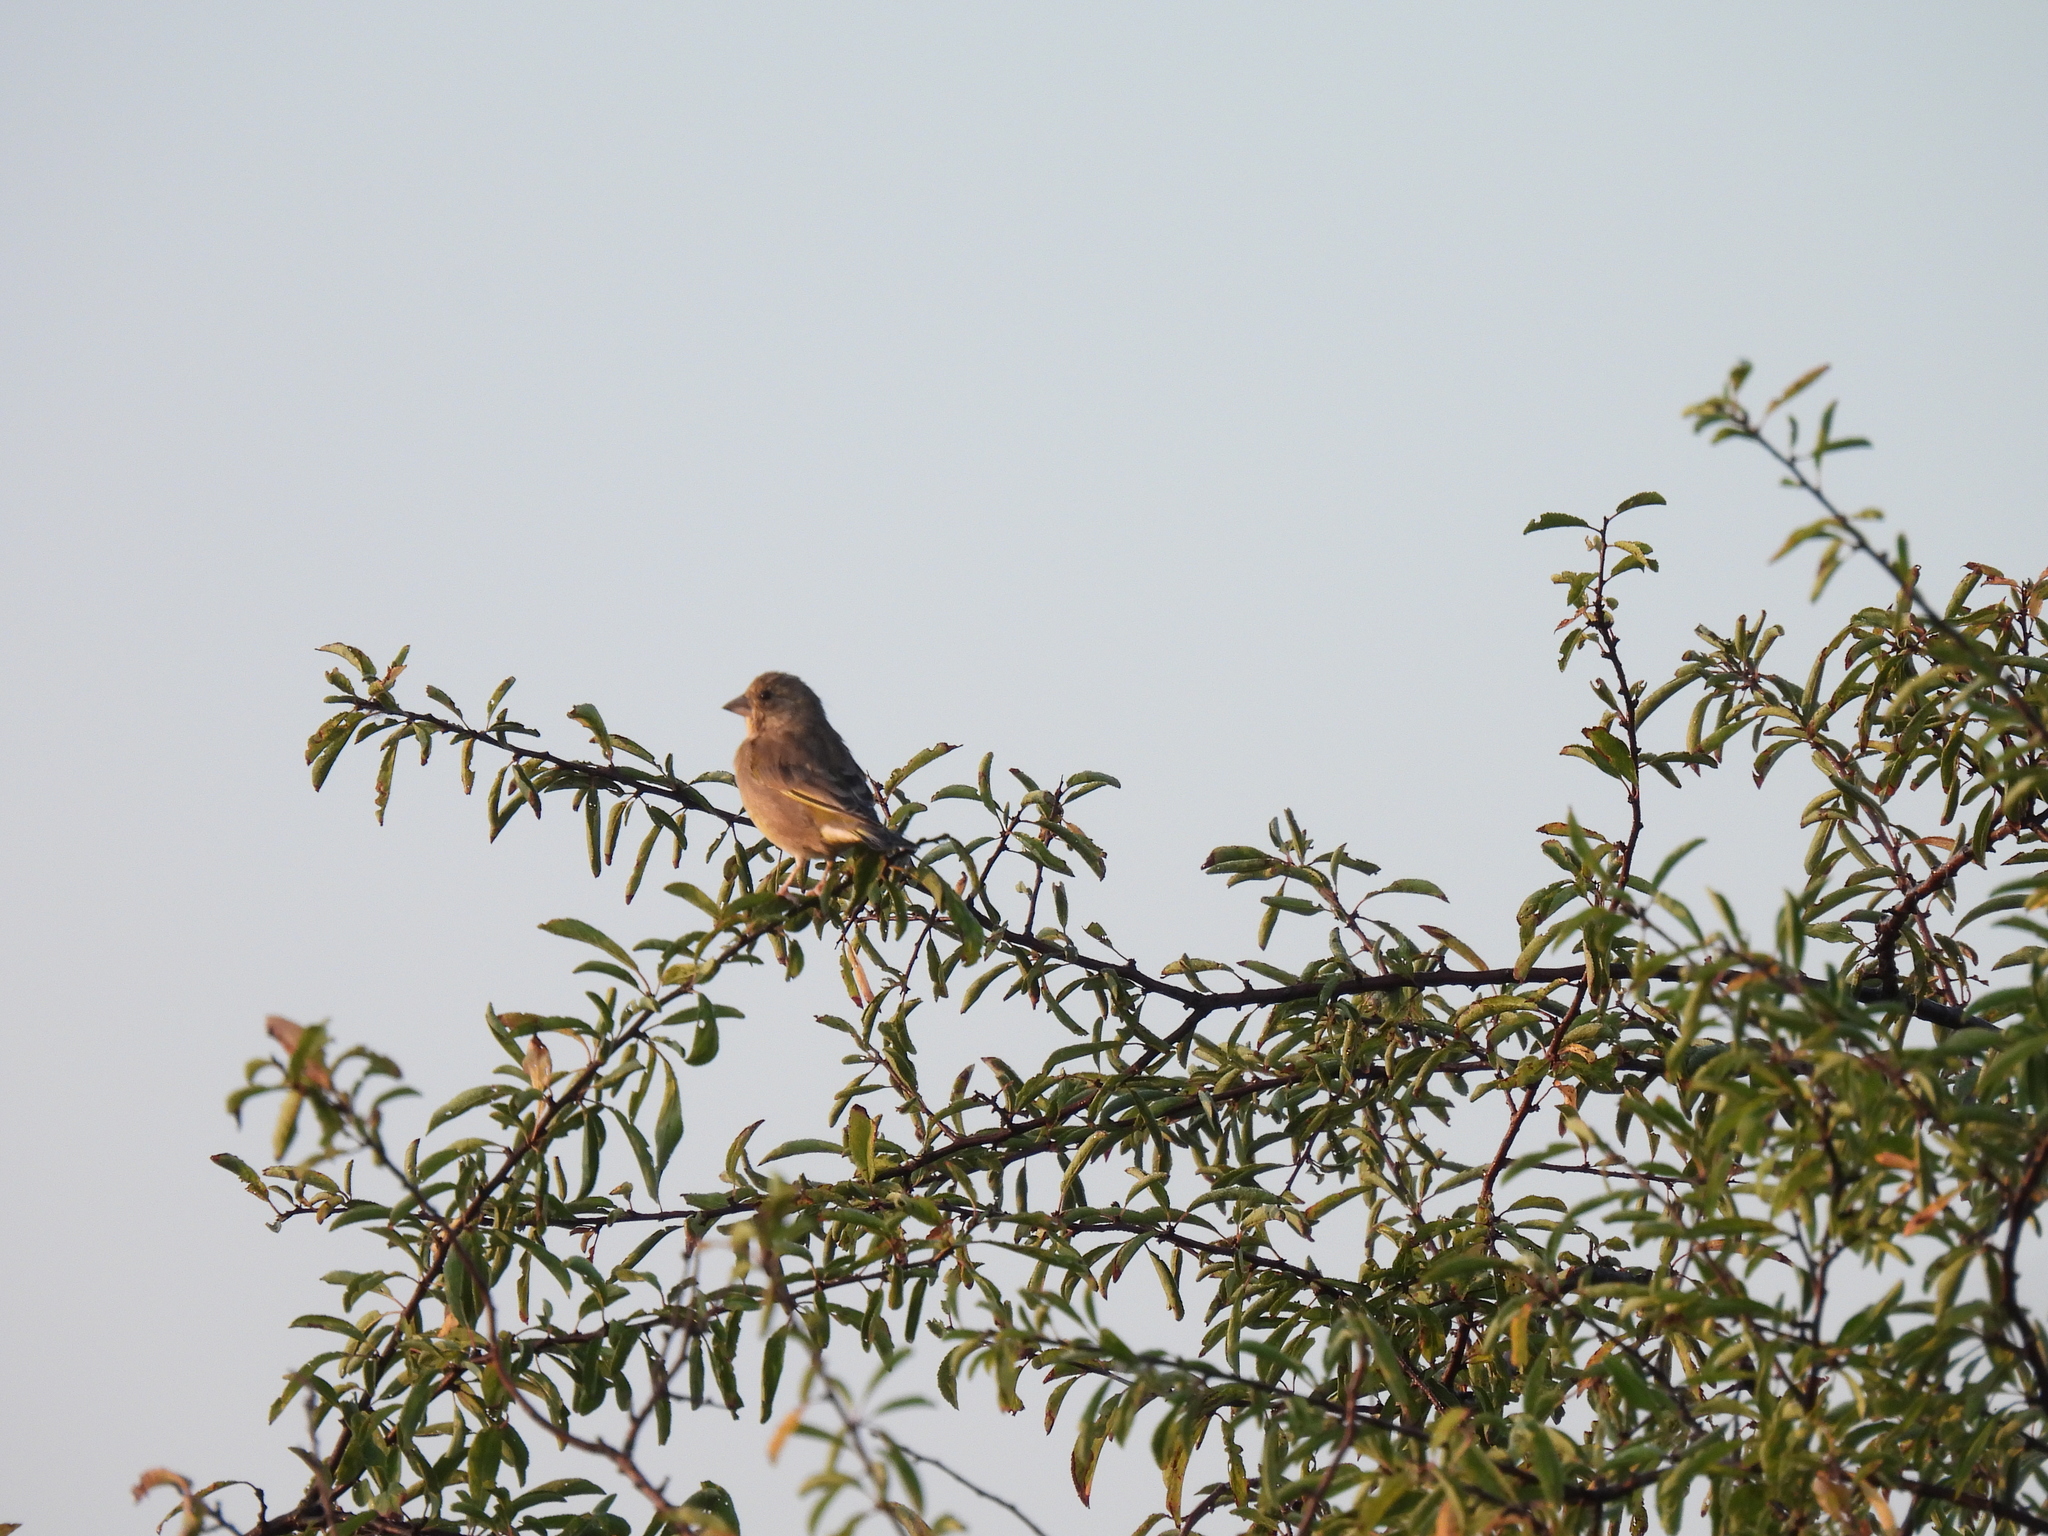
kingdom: Plantae
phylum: Tracheophyta
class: Liliopsida
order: Poales
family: Poaceae
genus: Chloris
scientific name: Chloris chloris
